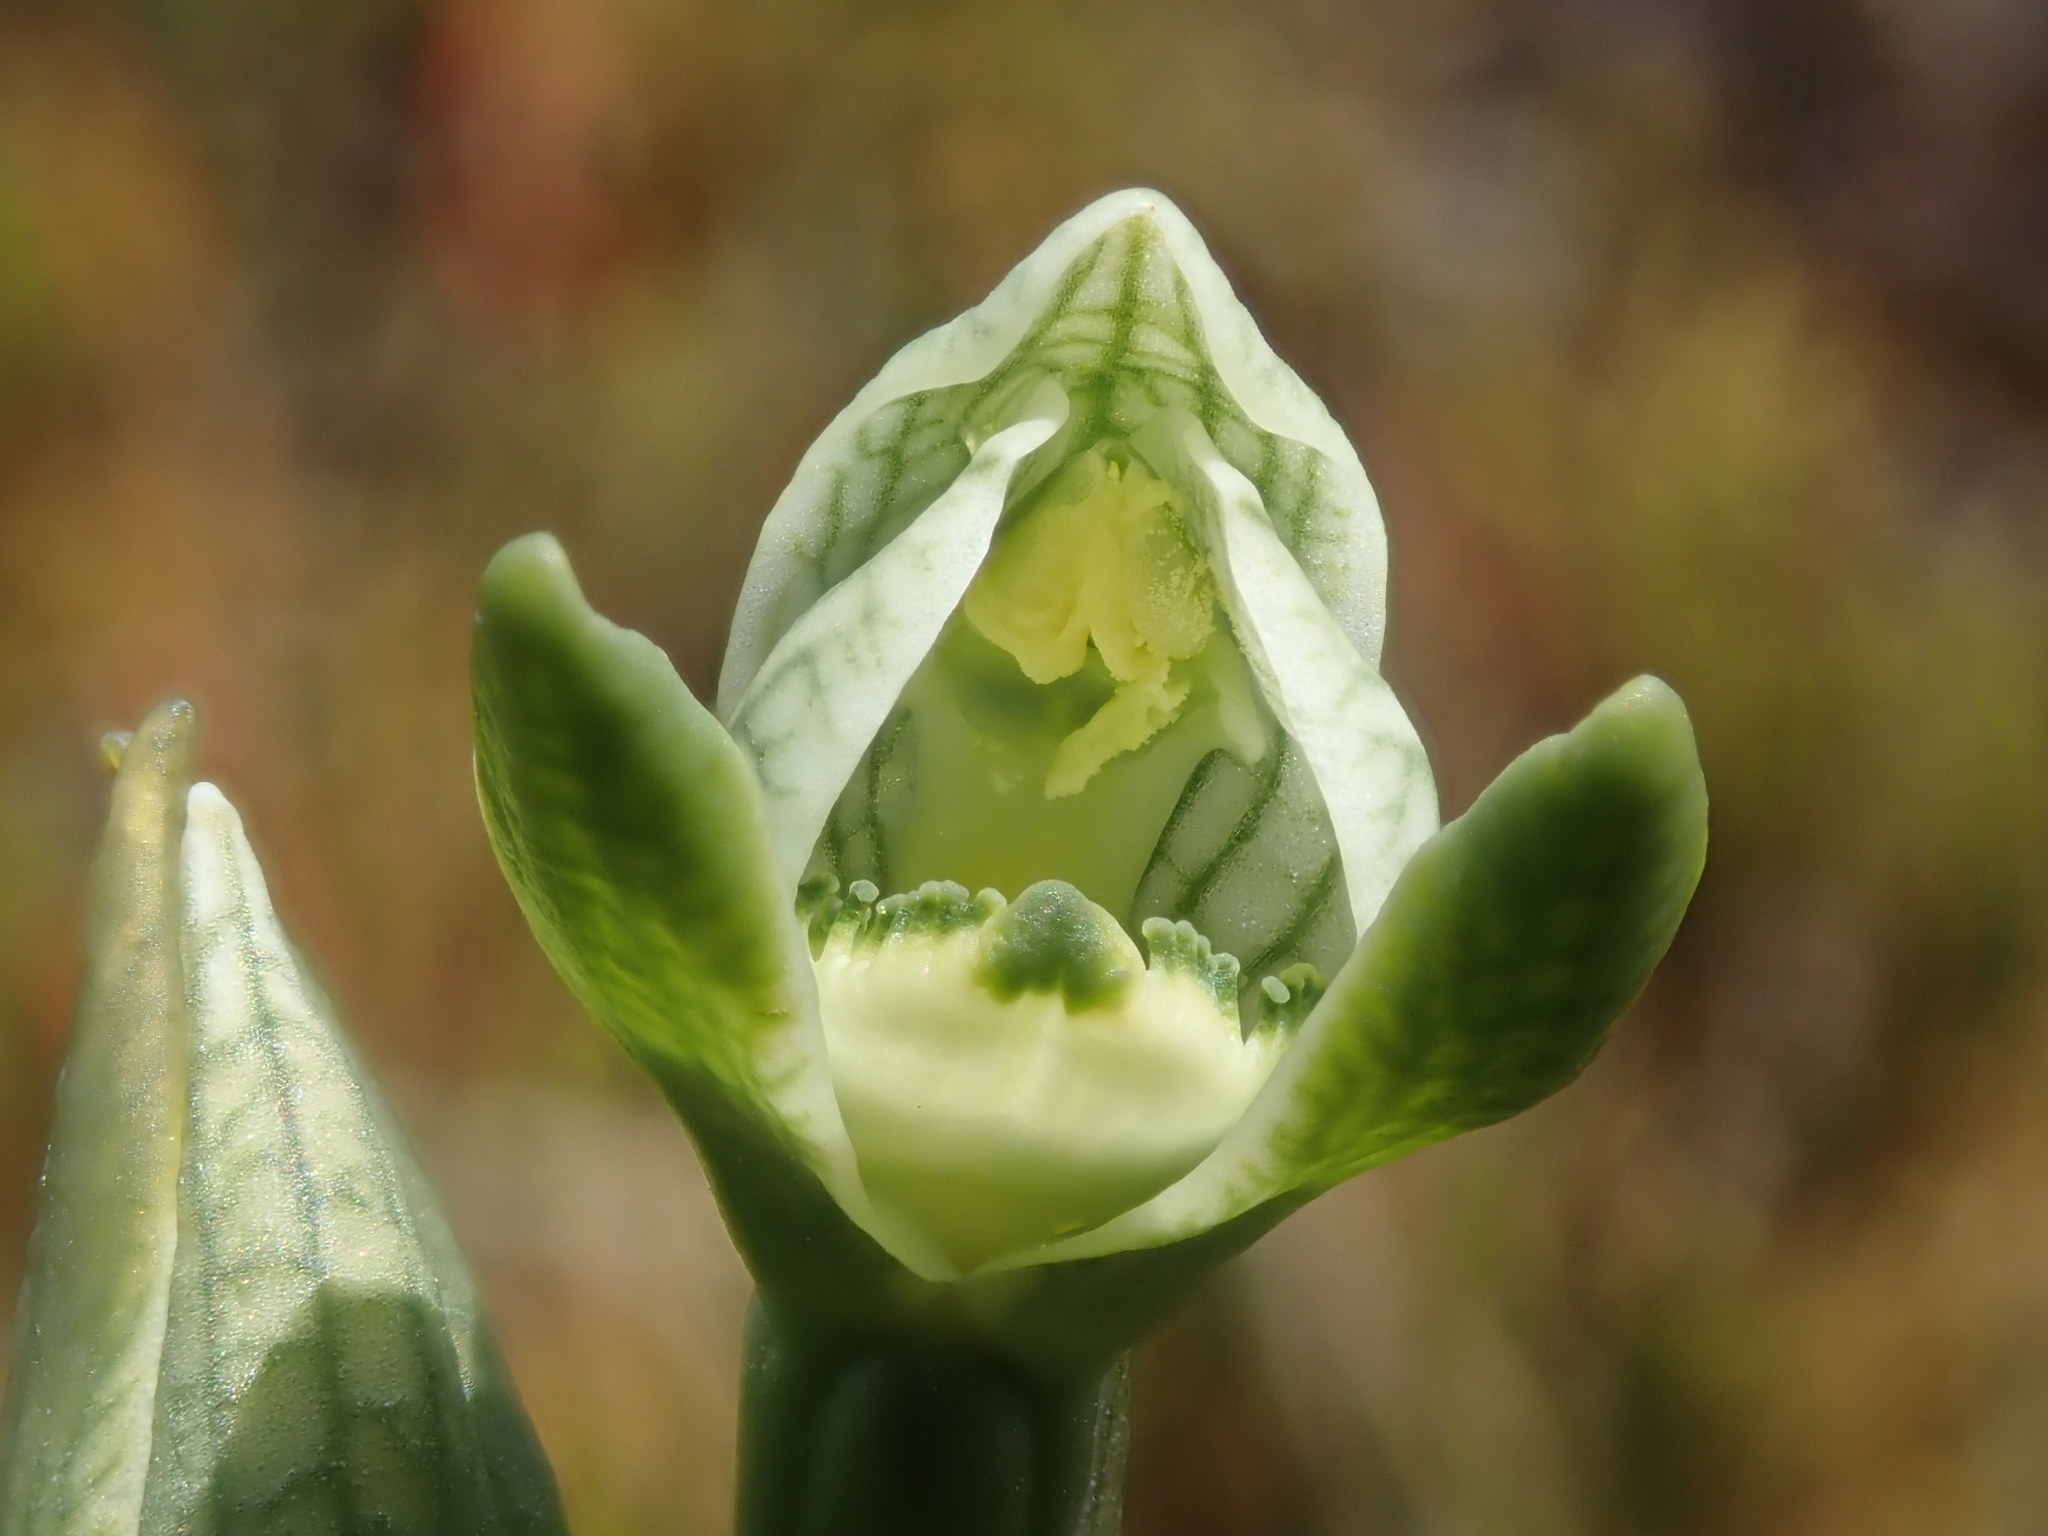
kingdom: Plantae
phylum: Tracheophyta
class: Liliopsida
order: Asparagales
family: Orchidaceae
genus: Chloraea
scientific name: Chloraea fonkii
